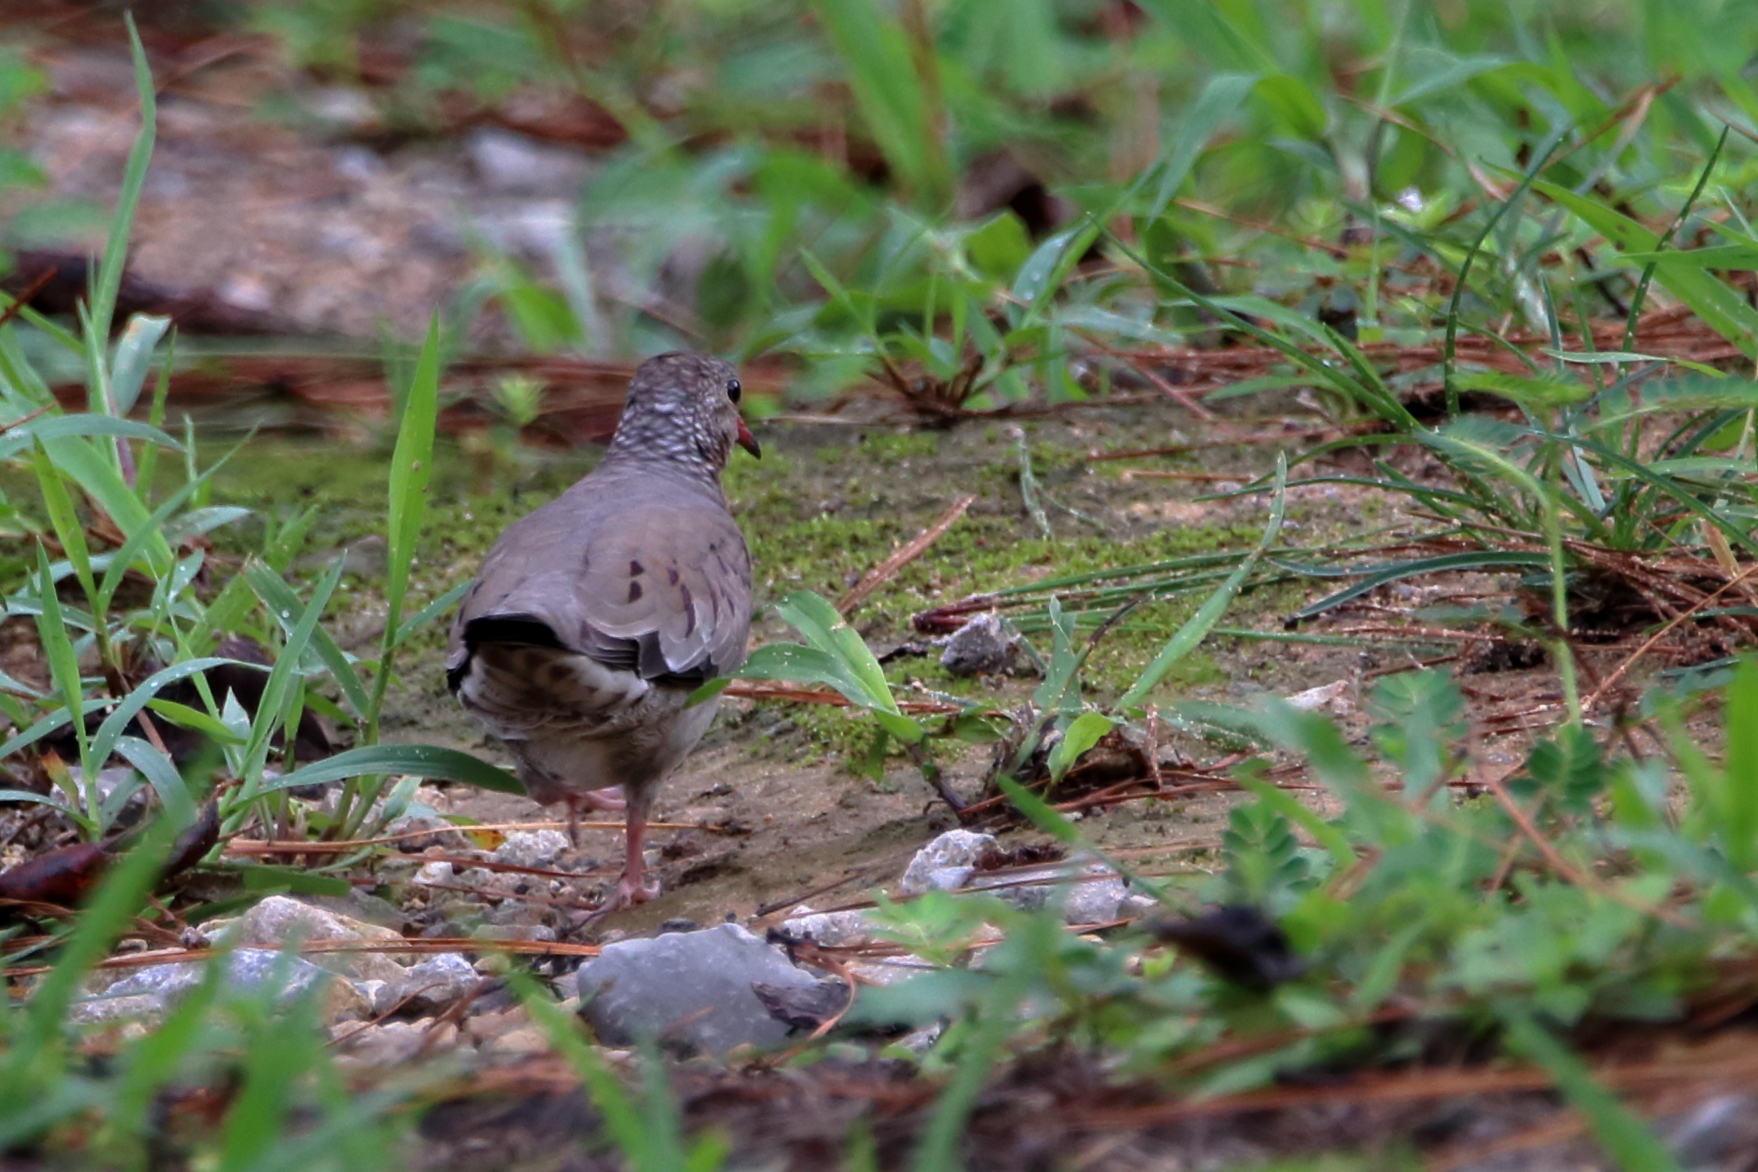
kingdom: Animalia
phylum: Chordata
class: Aves
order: Columbiformes
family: Columbidae
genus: Columbina
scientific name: Columbina passerina
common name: Common ground-dove
